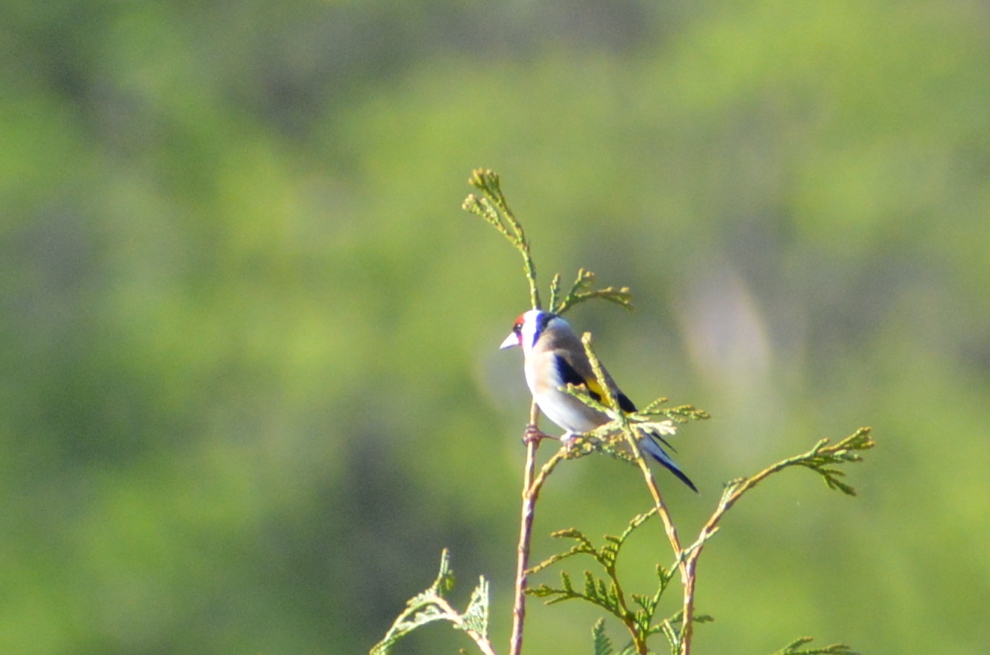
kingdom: Animalia
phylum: Chordata
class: Aves
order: Passeriformes
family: Fringillidae
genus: Carduelis
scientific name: Carduelis carduelis
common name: European goldfinch
